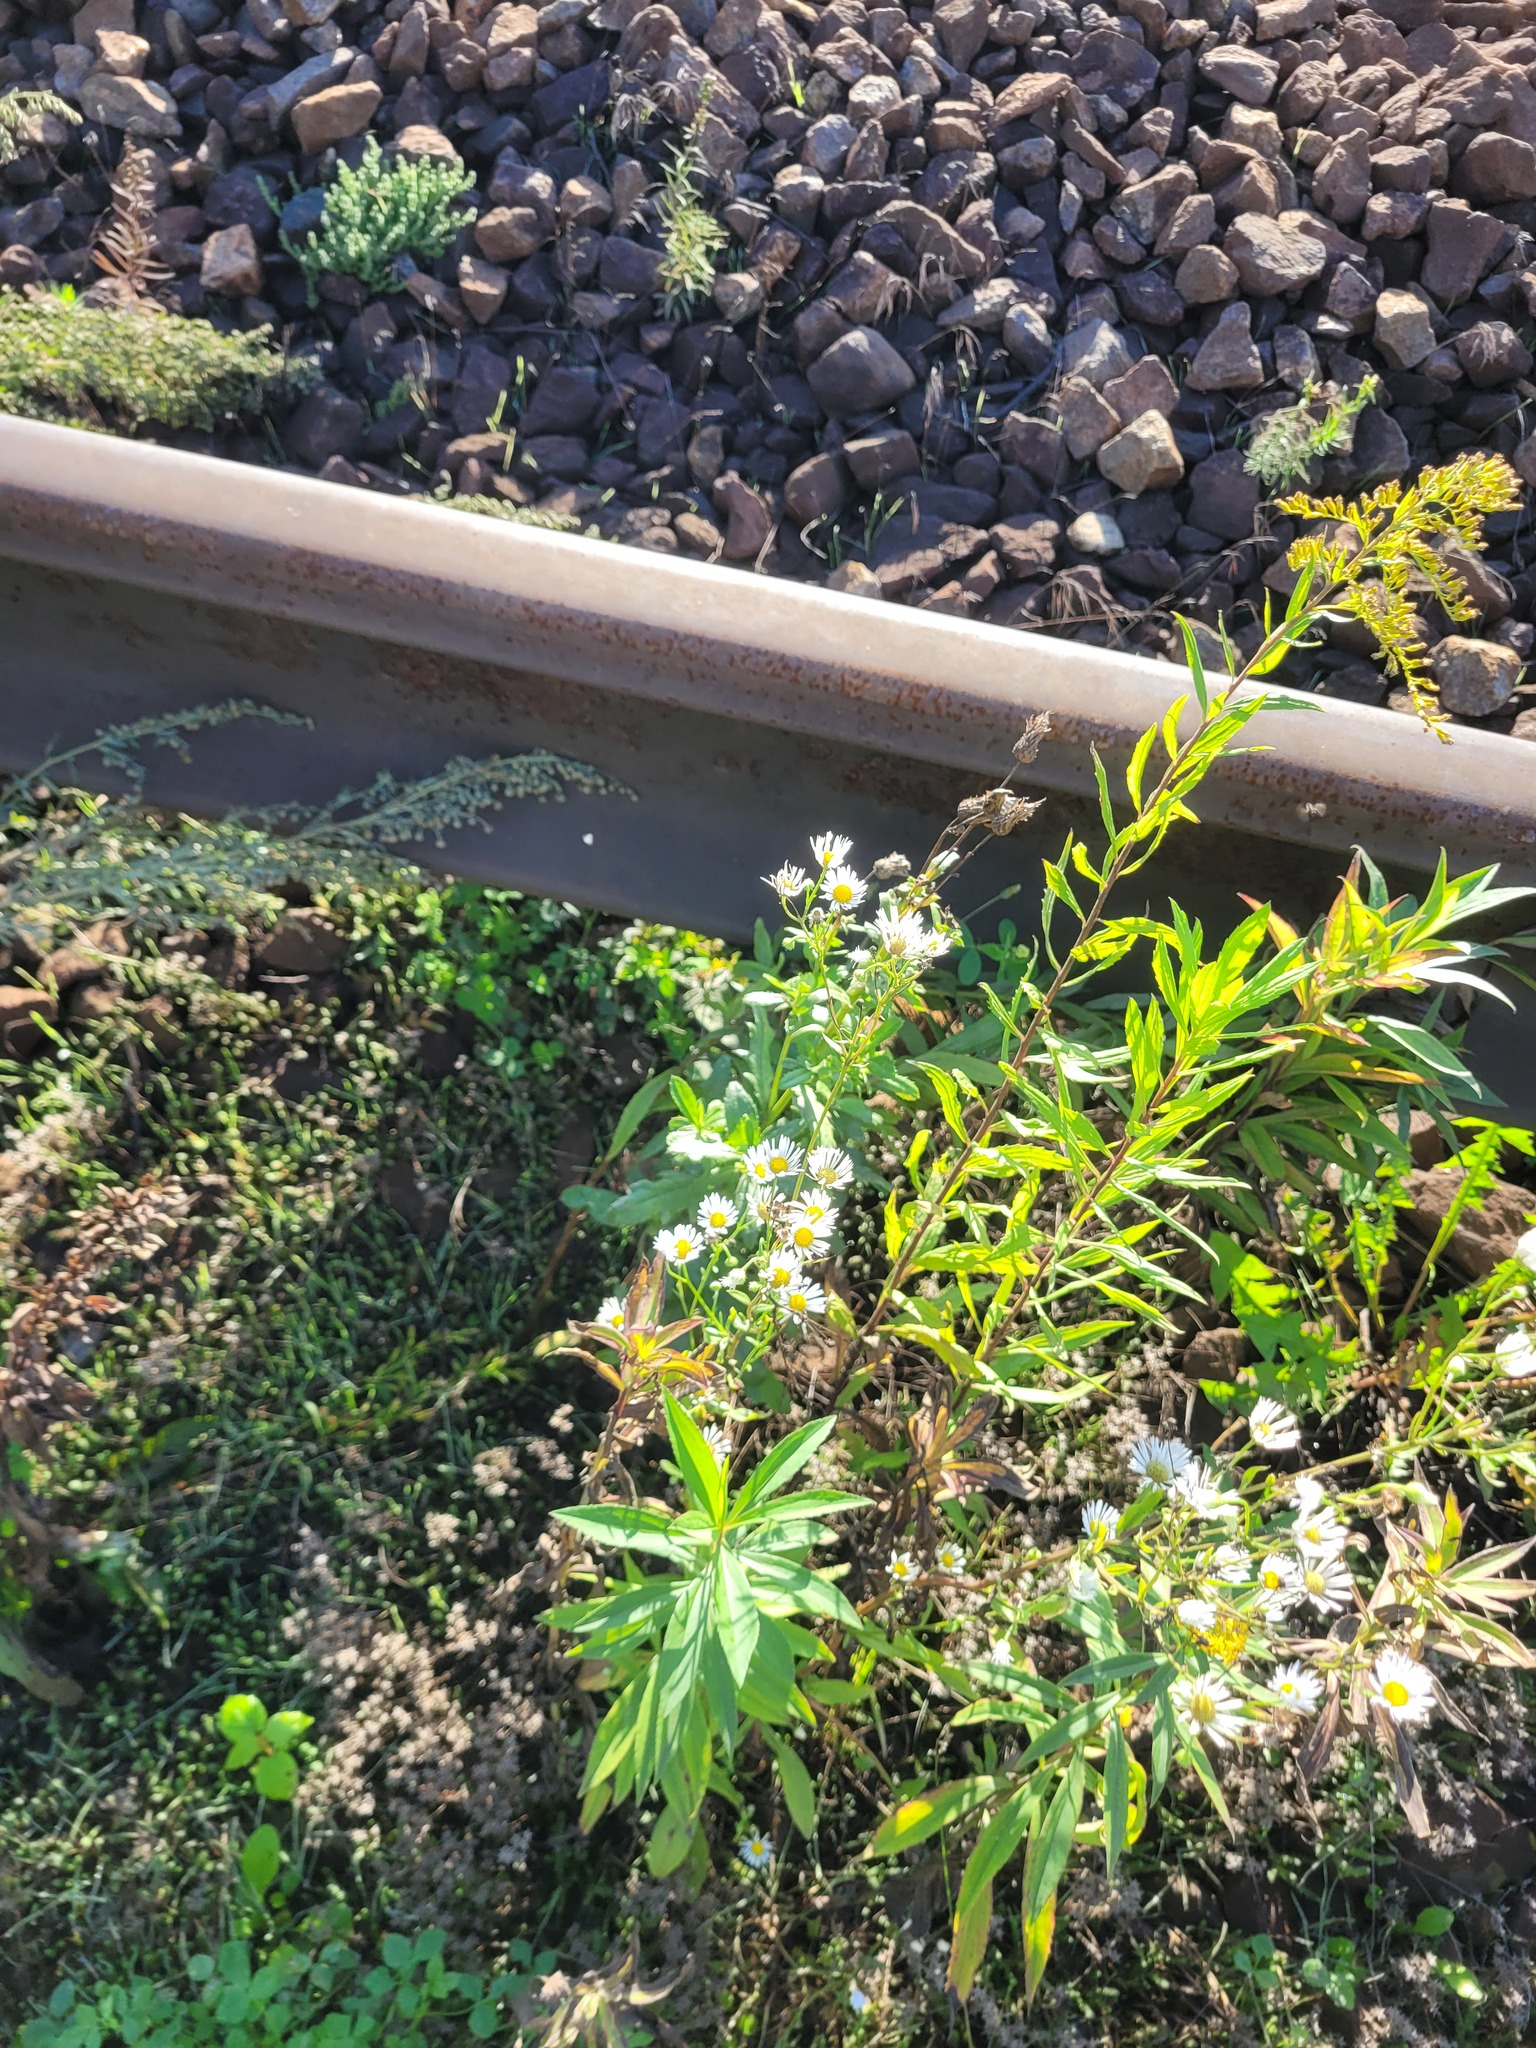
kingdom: Plantae
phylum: Tracheophyta
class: Magnoliopsida
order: Asterales
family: Asteraceae
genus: Erigeron
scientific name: Erigeron annuus
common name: Tall fleabane
